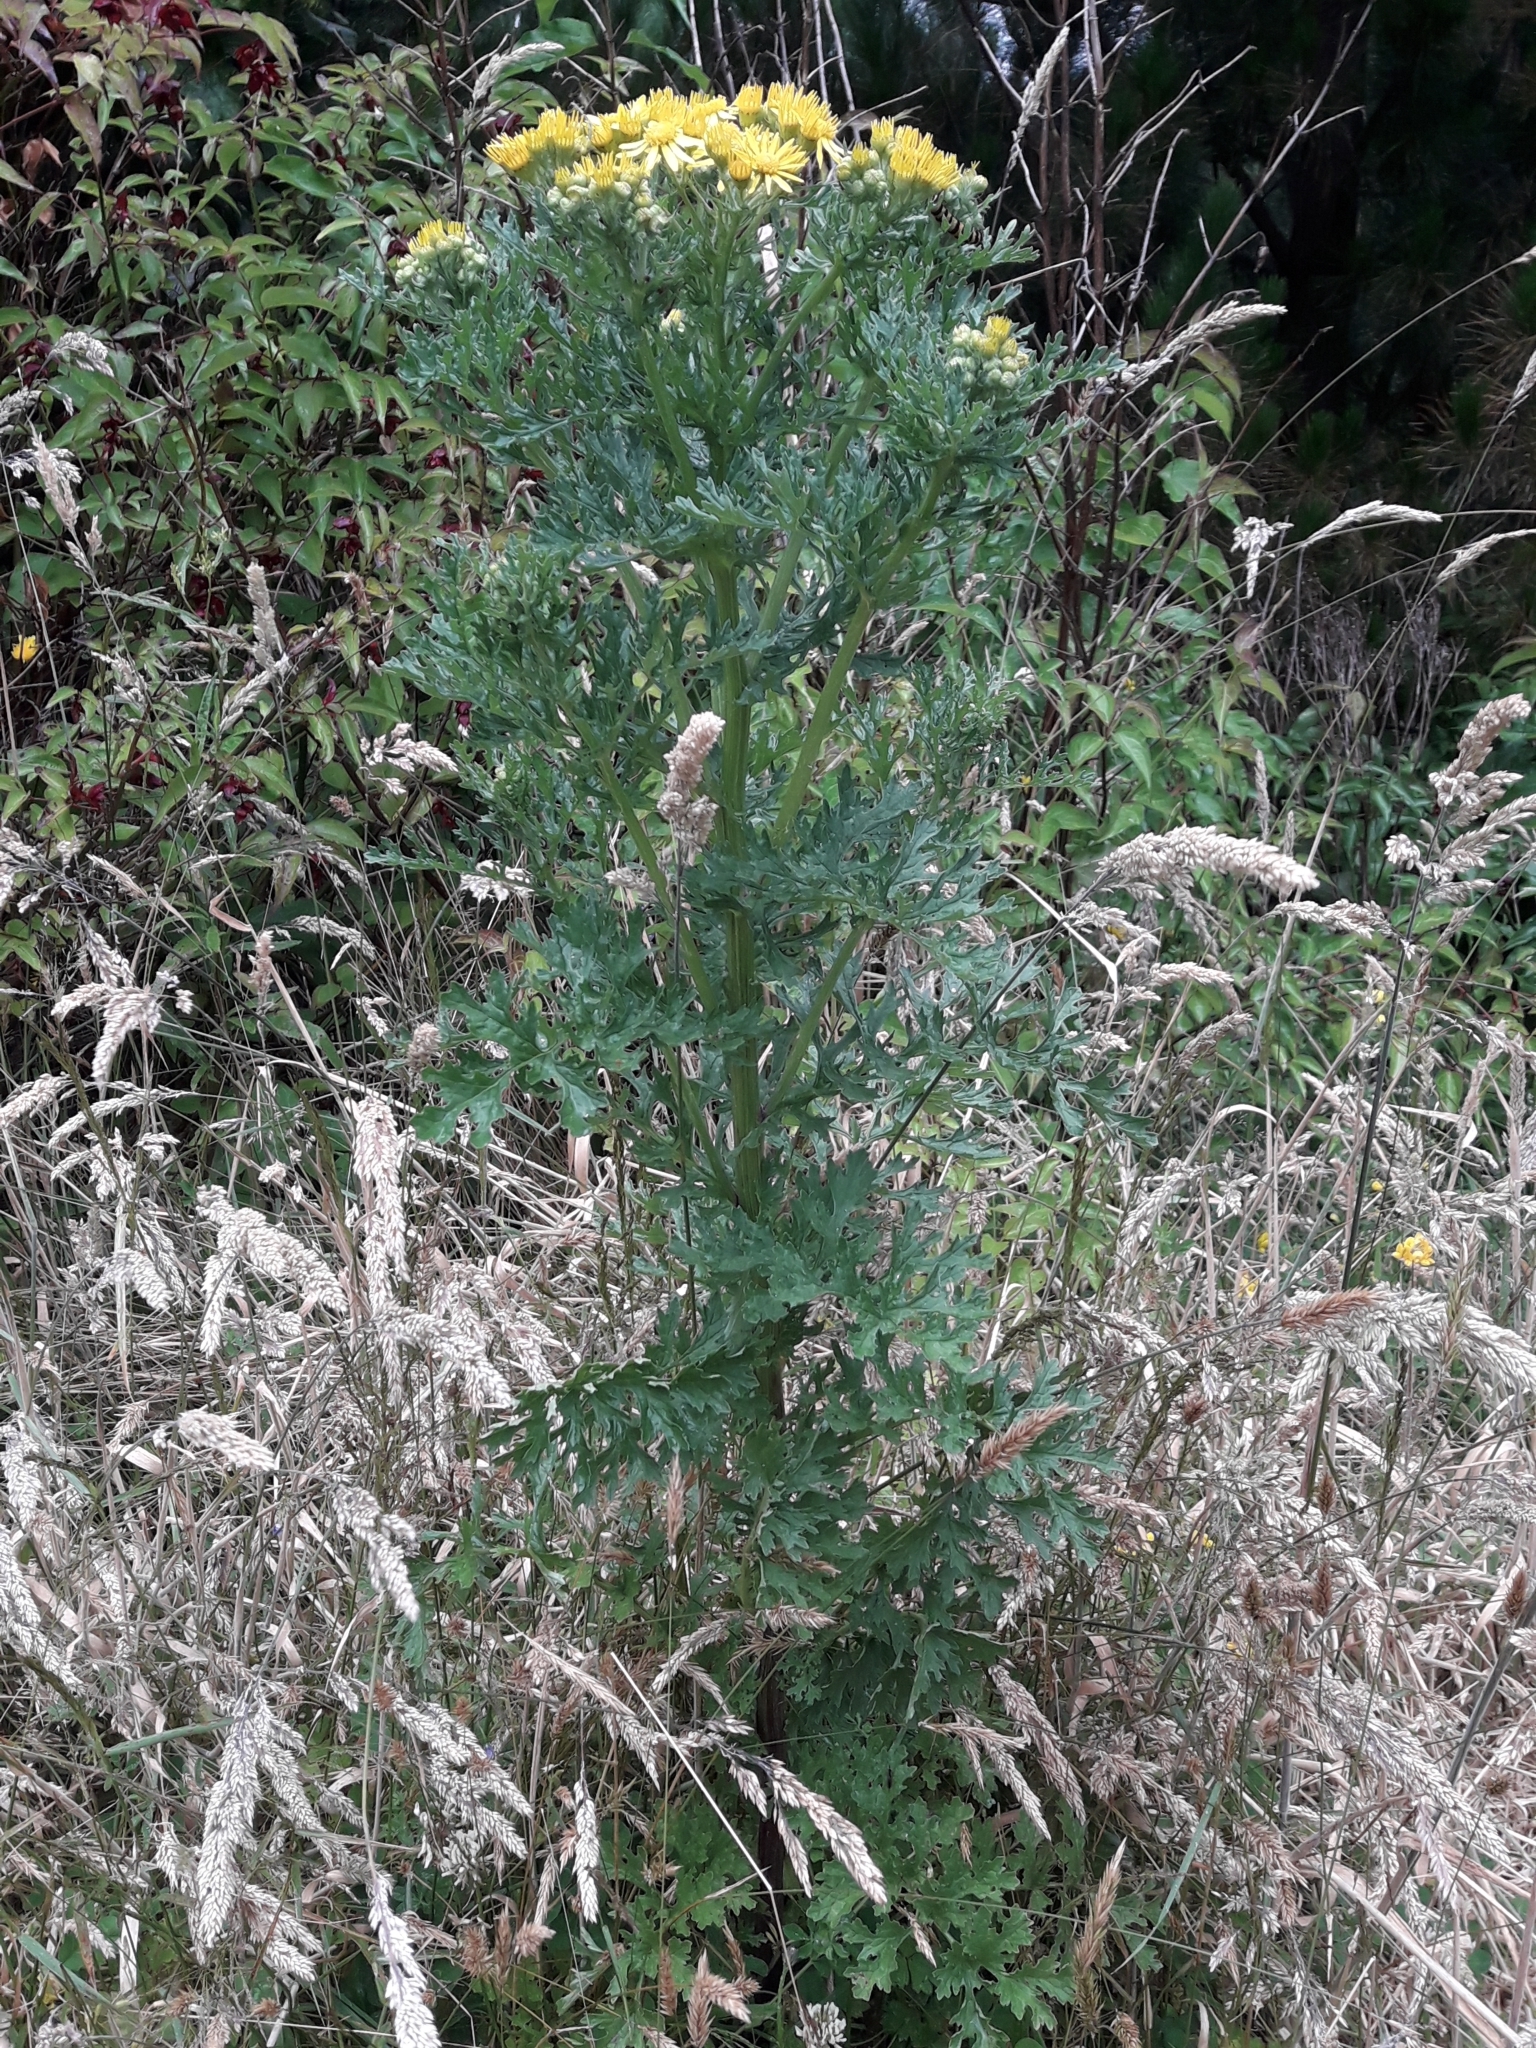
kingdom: Plantae
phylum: Tracheophyta
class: Magnoliopsida
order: Asterales
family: Asteraceae
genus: Jacobaea
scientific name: Jacobaea vulgaris
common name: Stinking willie
